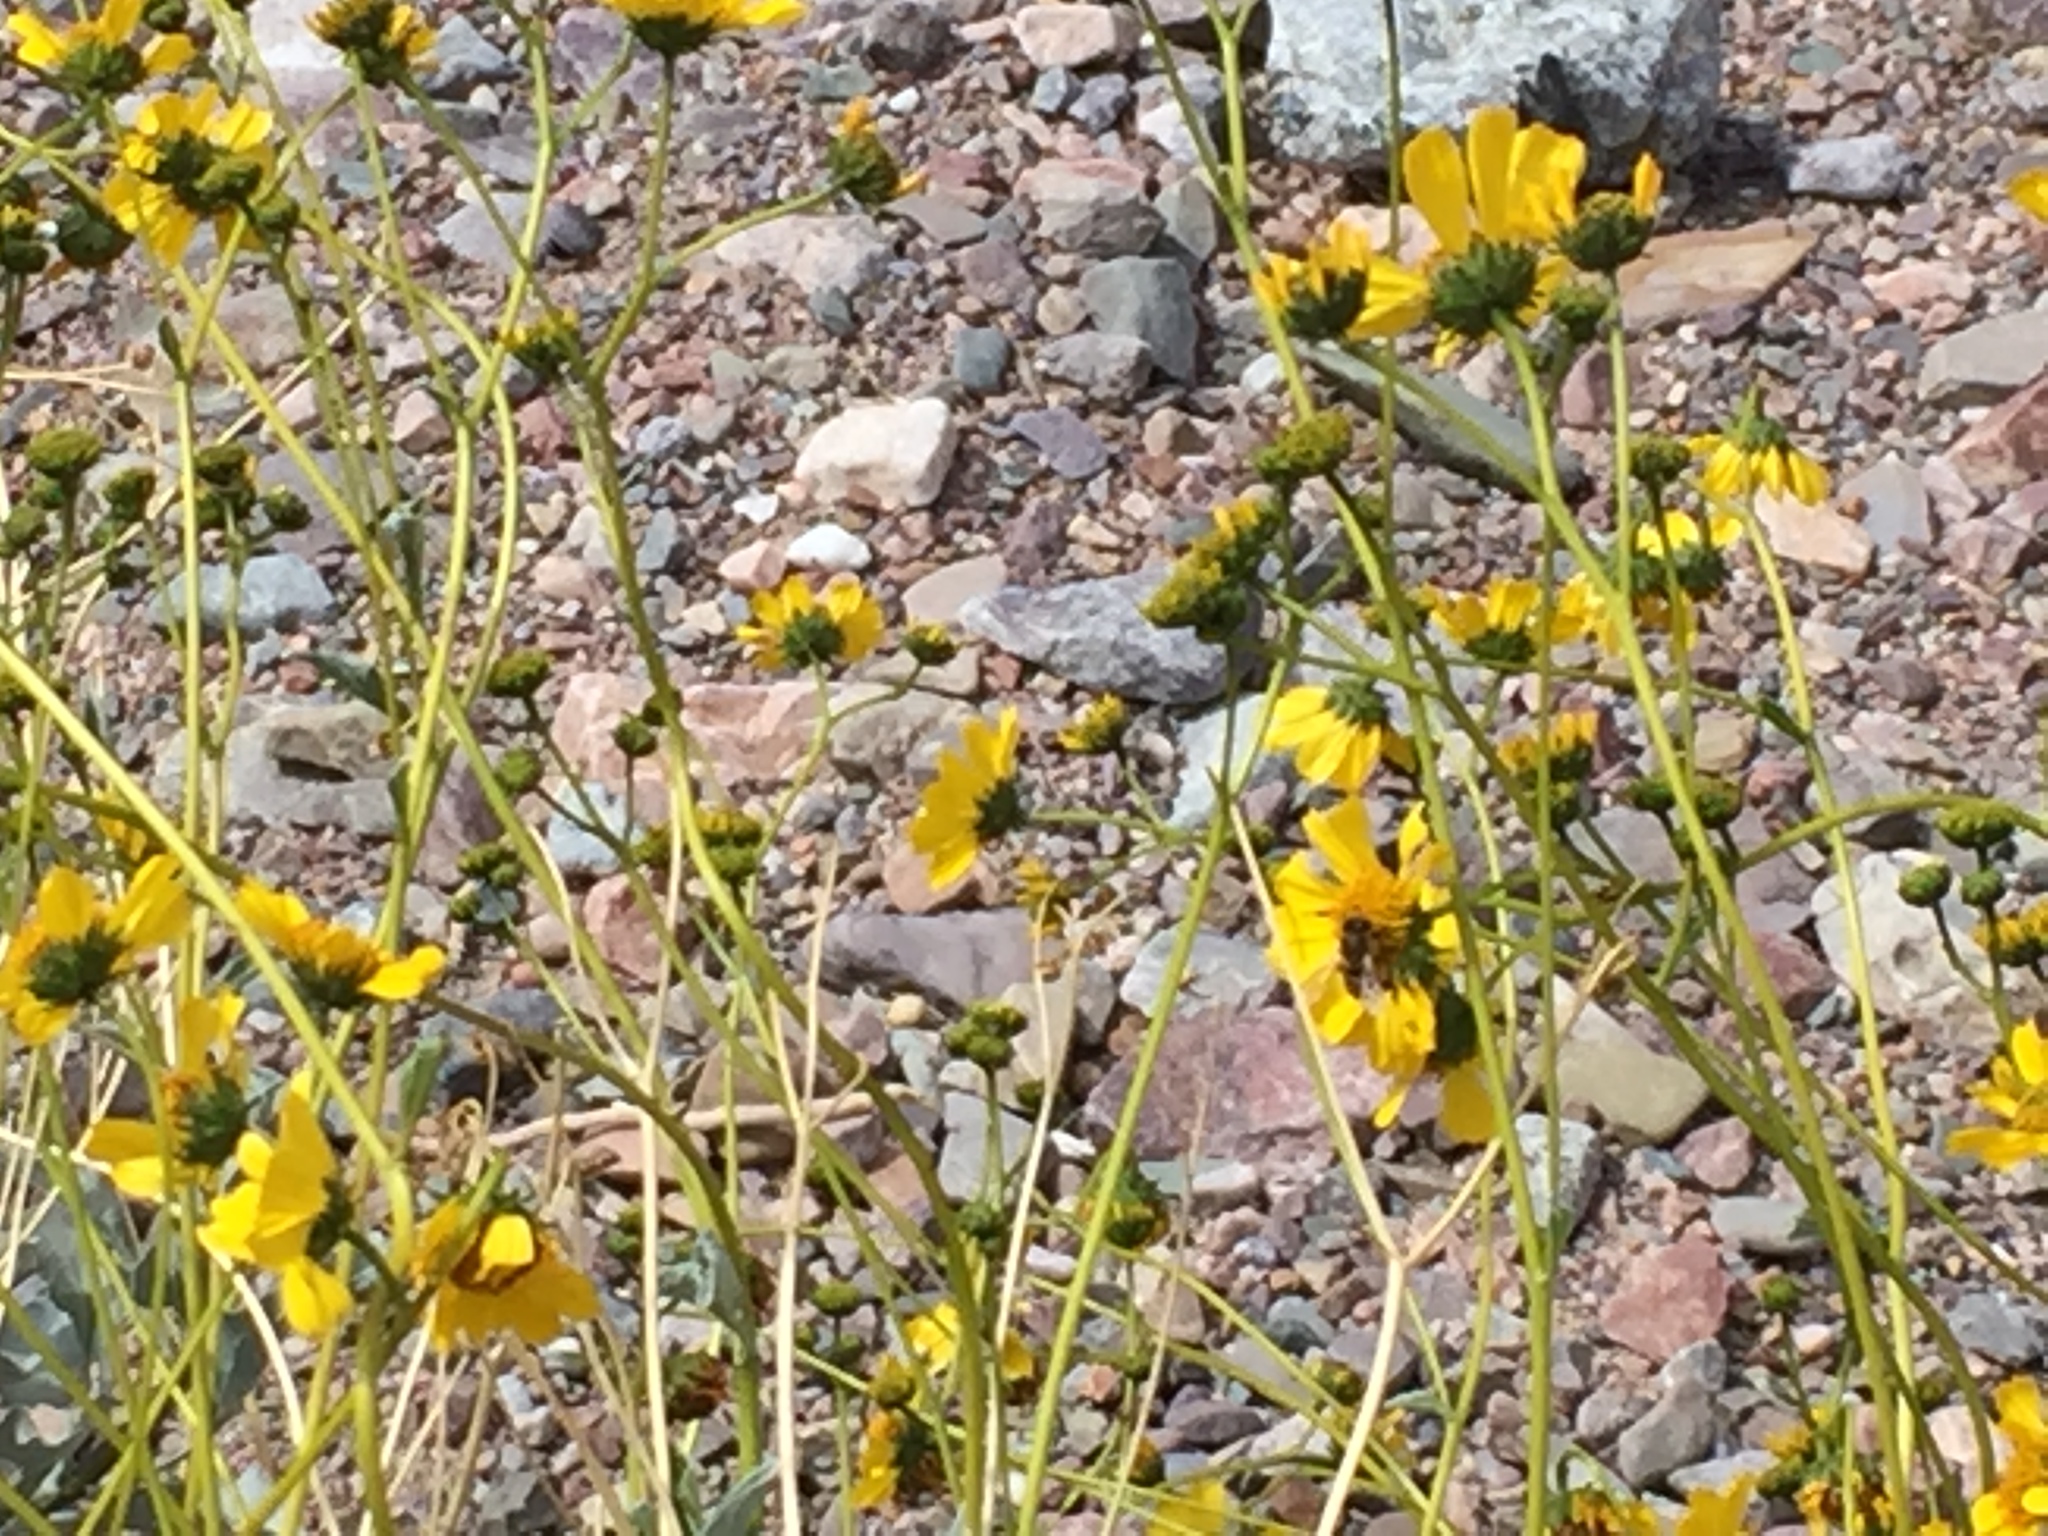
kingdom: Plantae
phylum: Tracheophyta
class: Magnoliopsida
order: Asterales
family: Asteraceae
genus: Encelia
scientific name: Encelia farinosa
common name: Brittlebush
